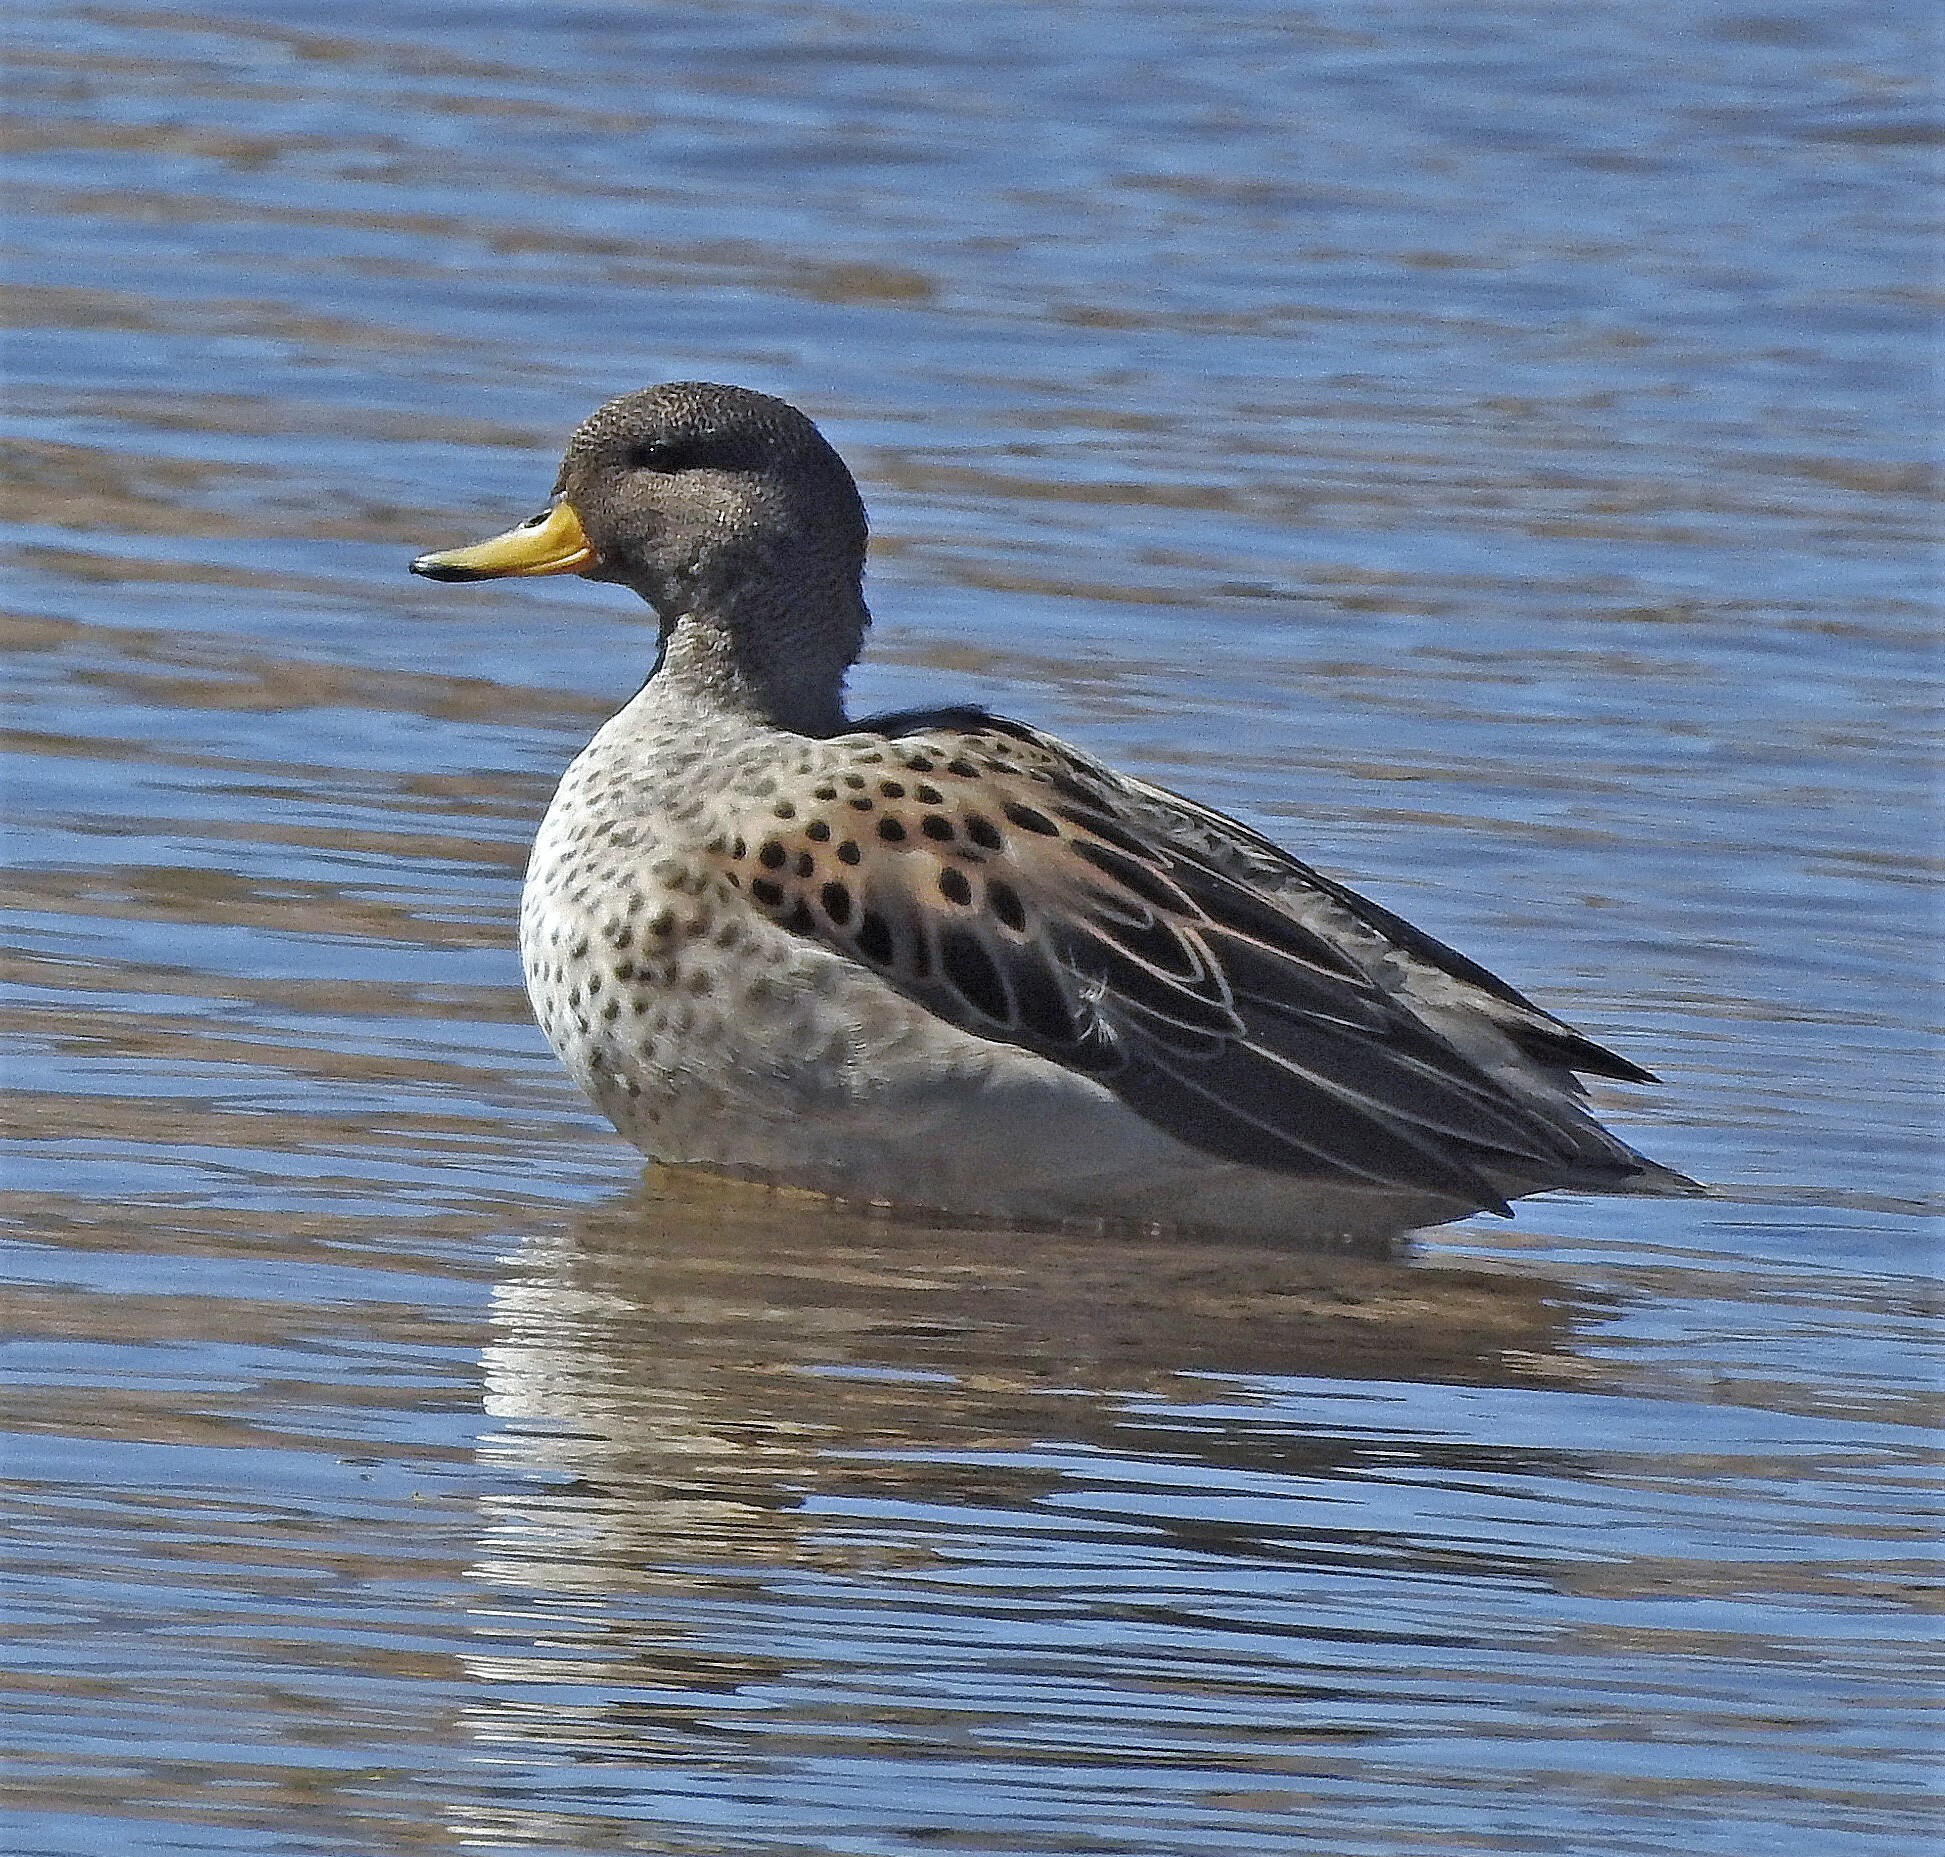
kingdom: Animalia
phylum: Chordata
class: Aves
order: Anseriformes
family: Anatidae
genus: Anas
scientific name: Anas flavirostris
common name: Yellow-billed teal
